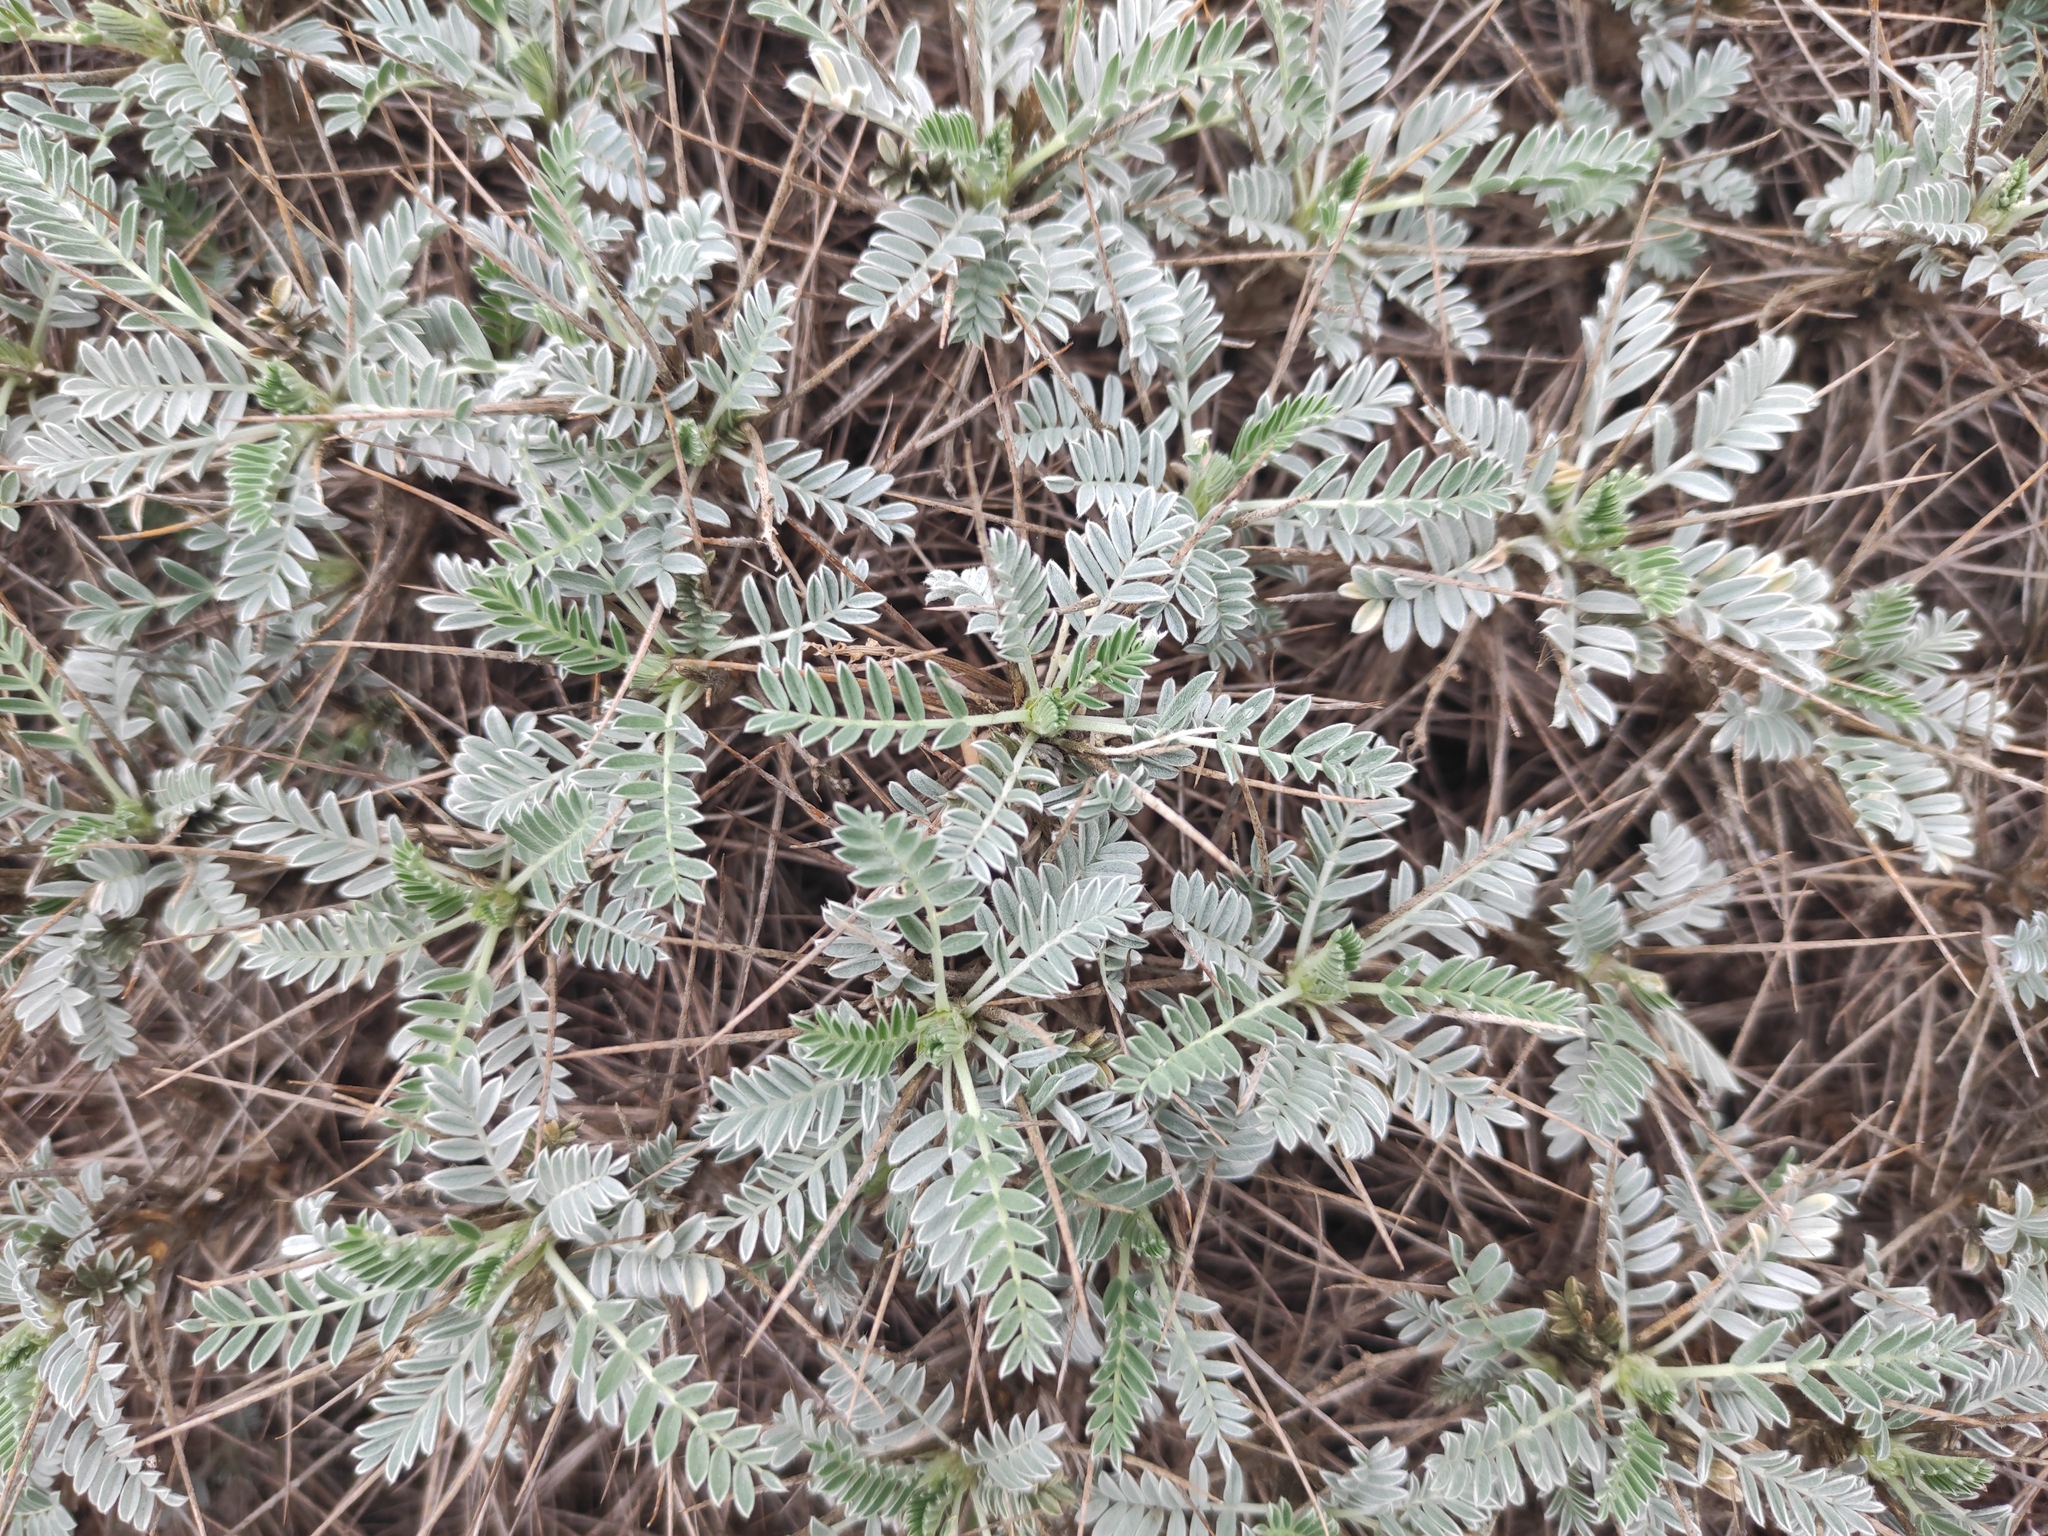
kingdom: Plantae
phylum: Tracheophyta
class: Magnoliopsida
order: Fabales
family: Fabaceae
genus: Astragalus
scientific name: Astragalus tragacantha
